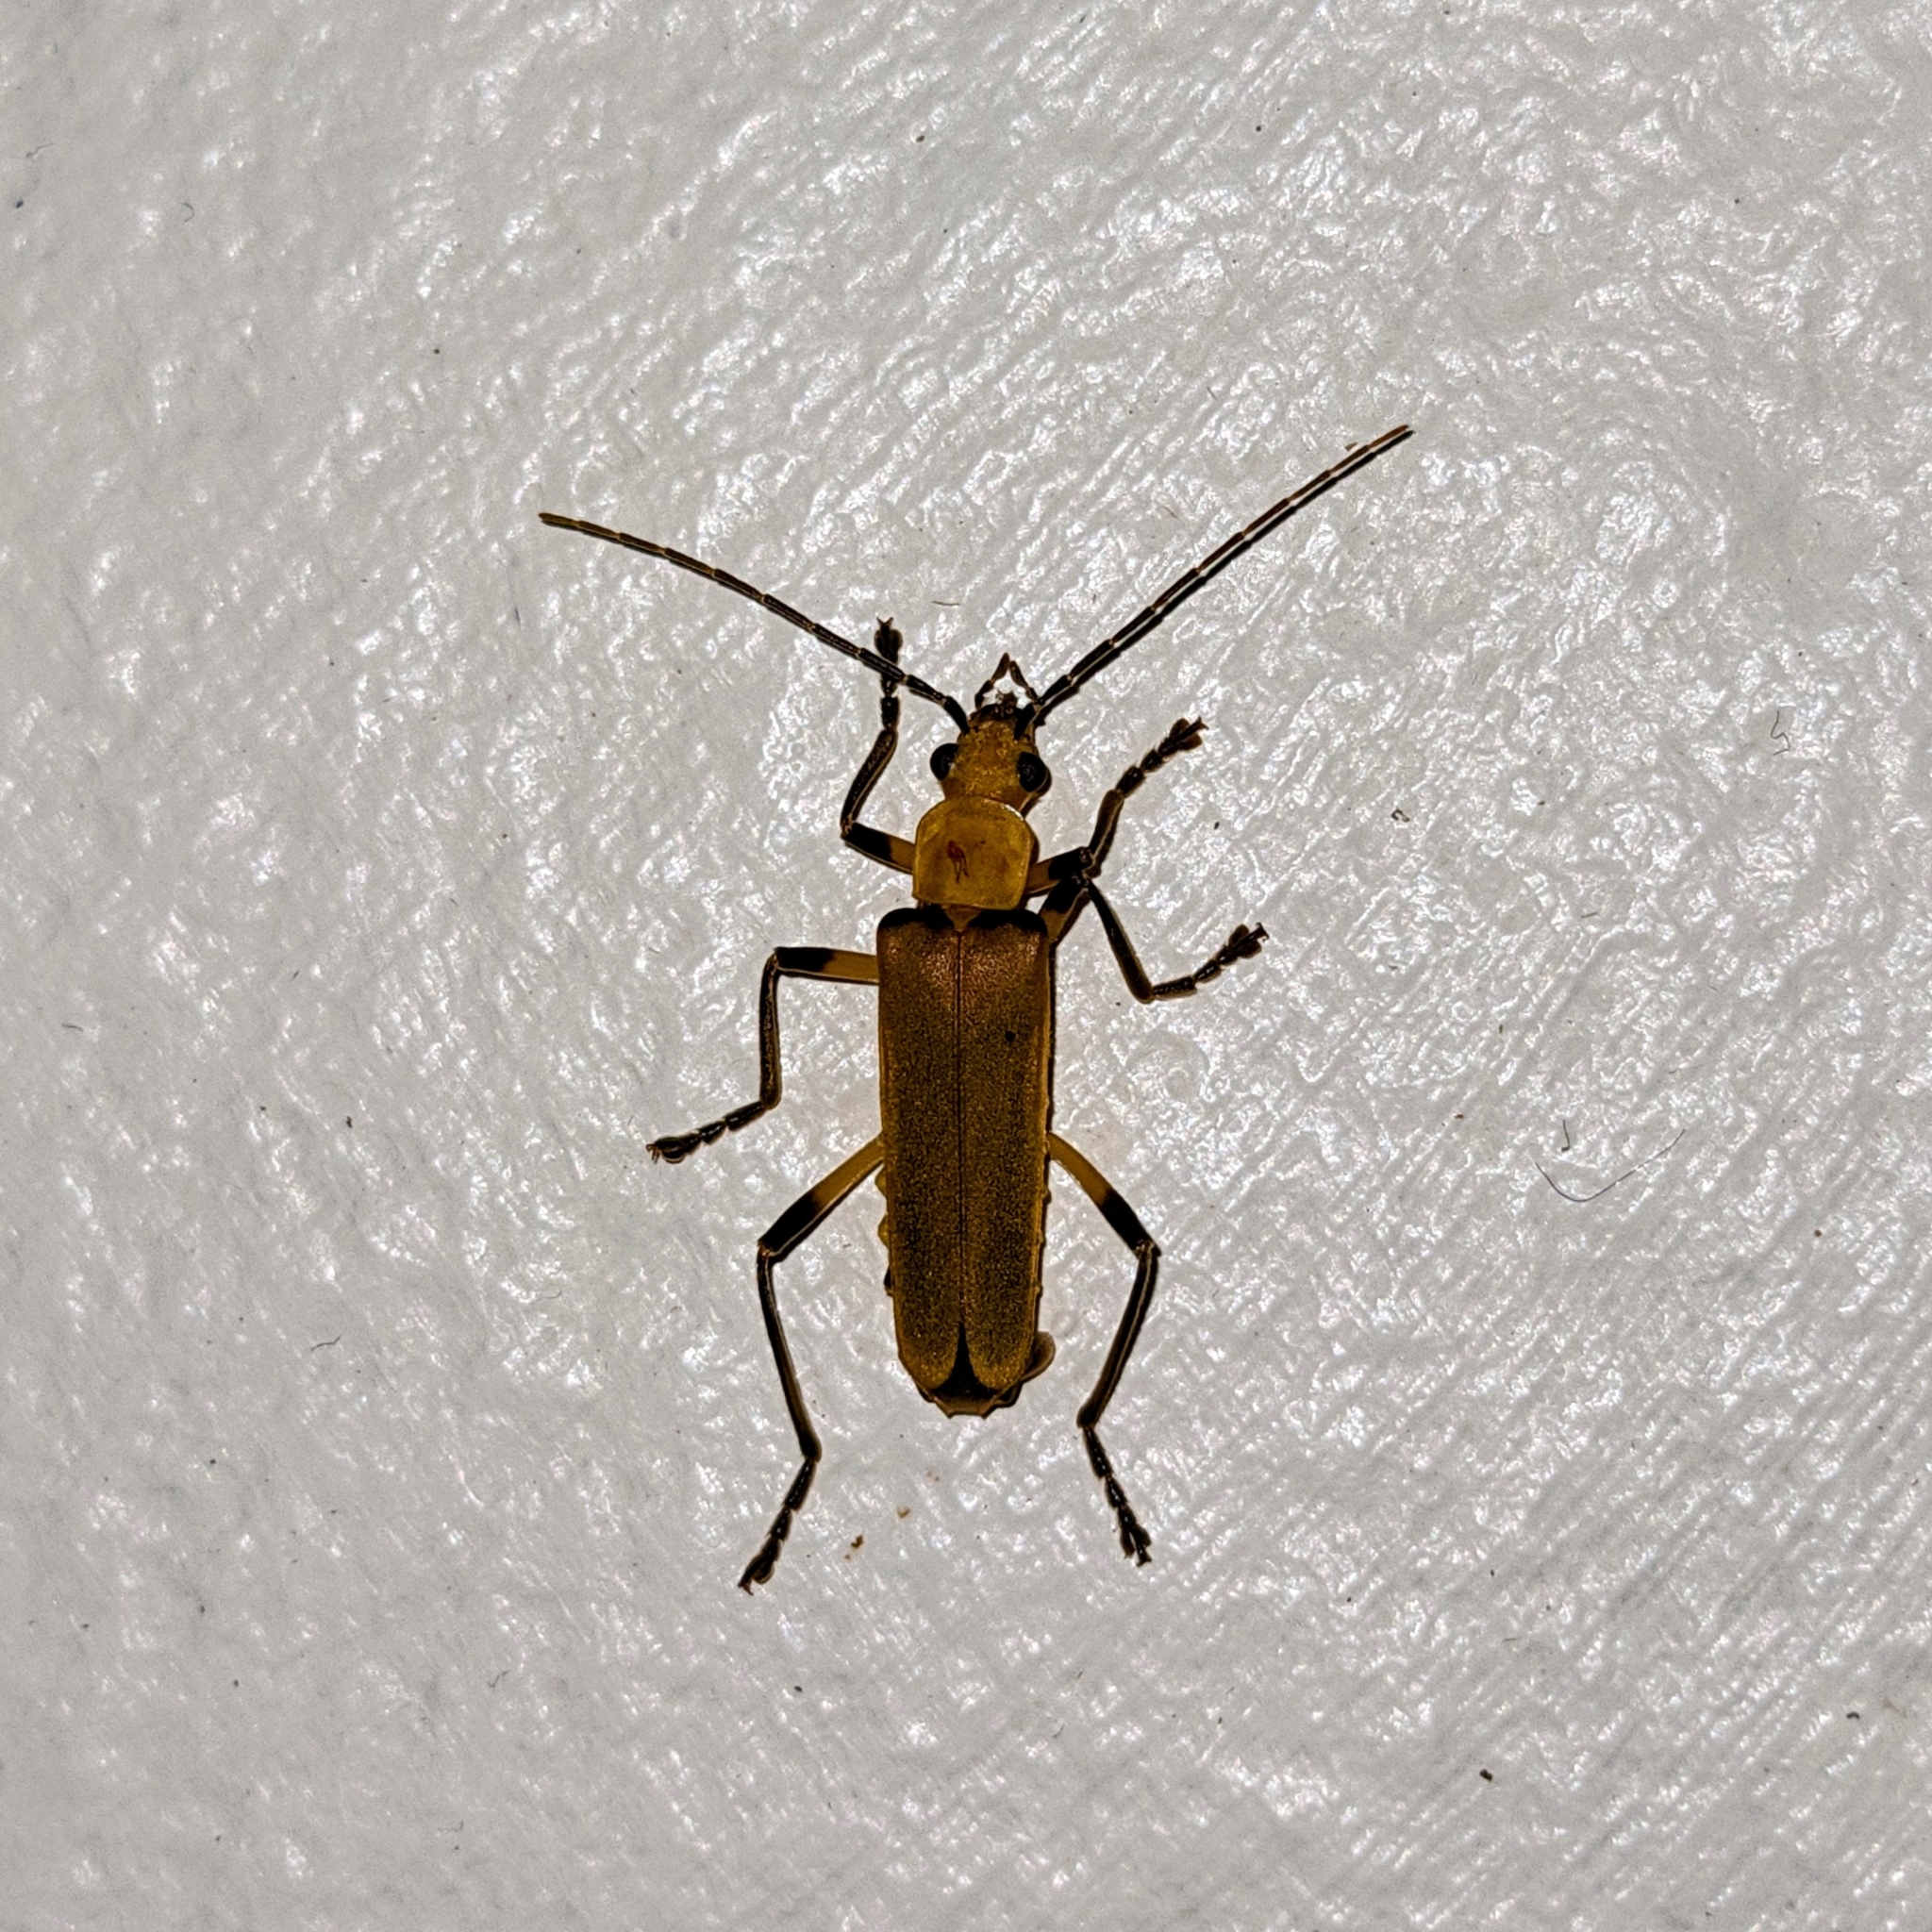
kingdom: Animalia
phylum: Arthropoda
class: Insecta
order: Coleoptera
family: Cantharidae
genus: Chauliognathus
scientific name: Chauliognathus
